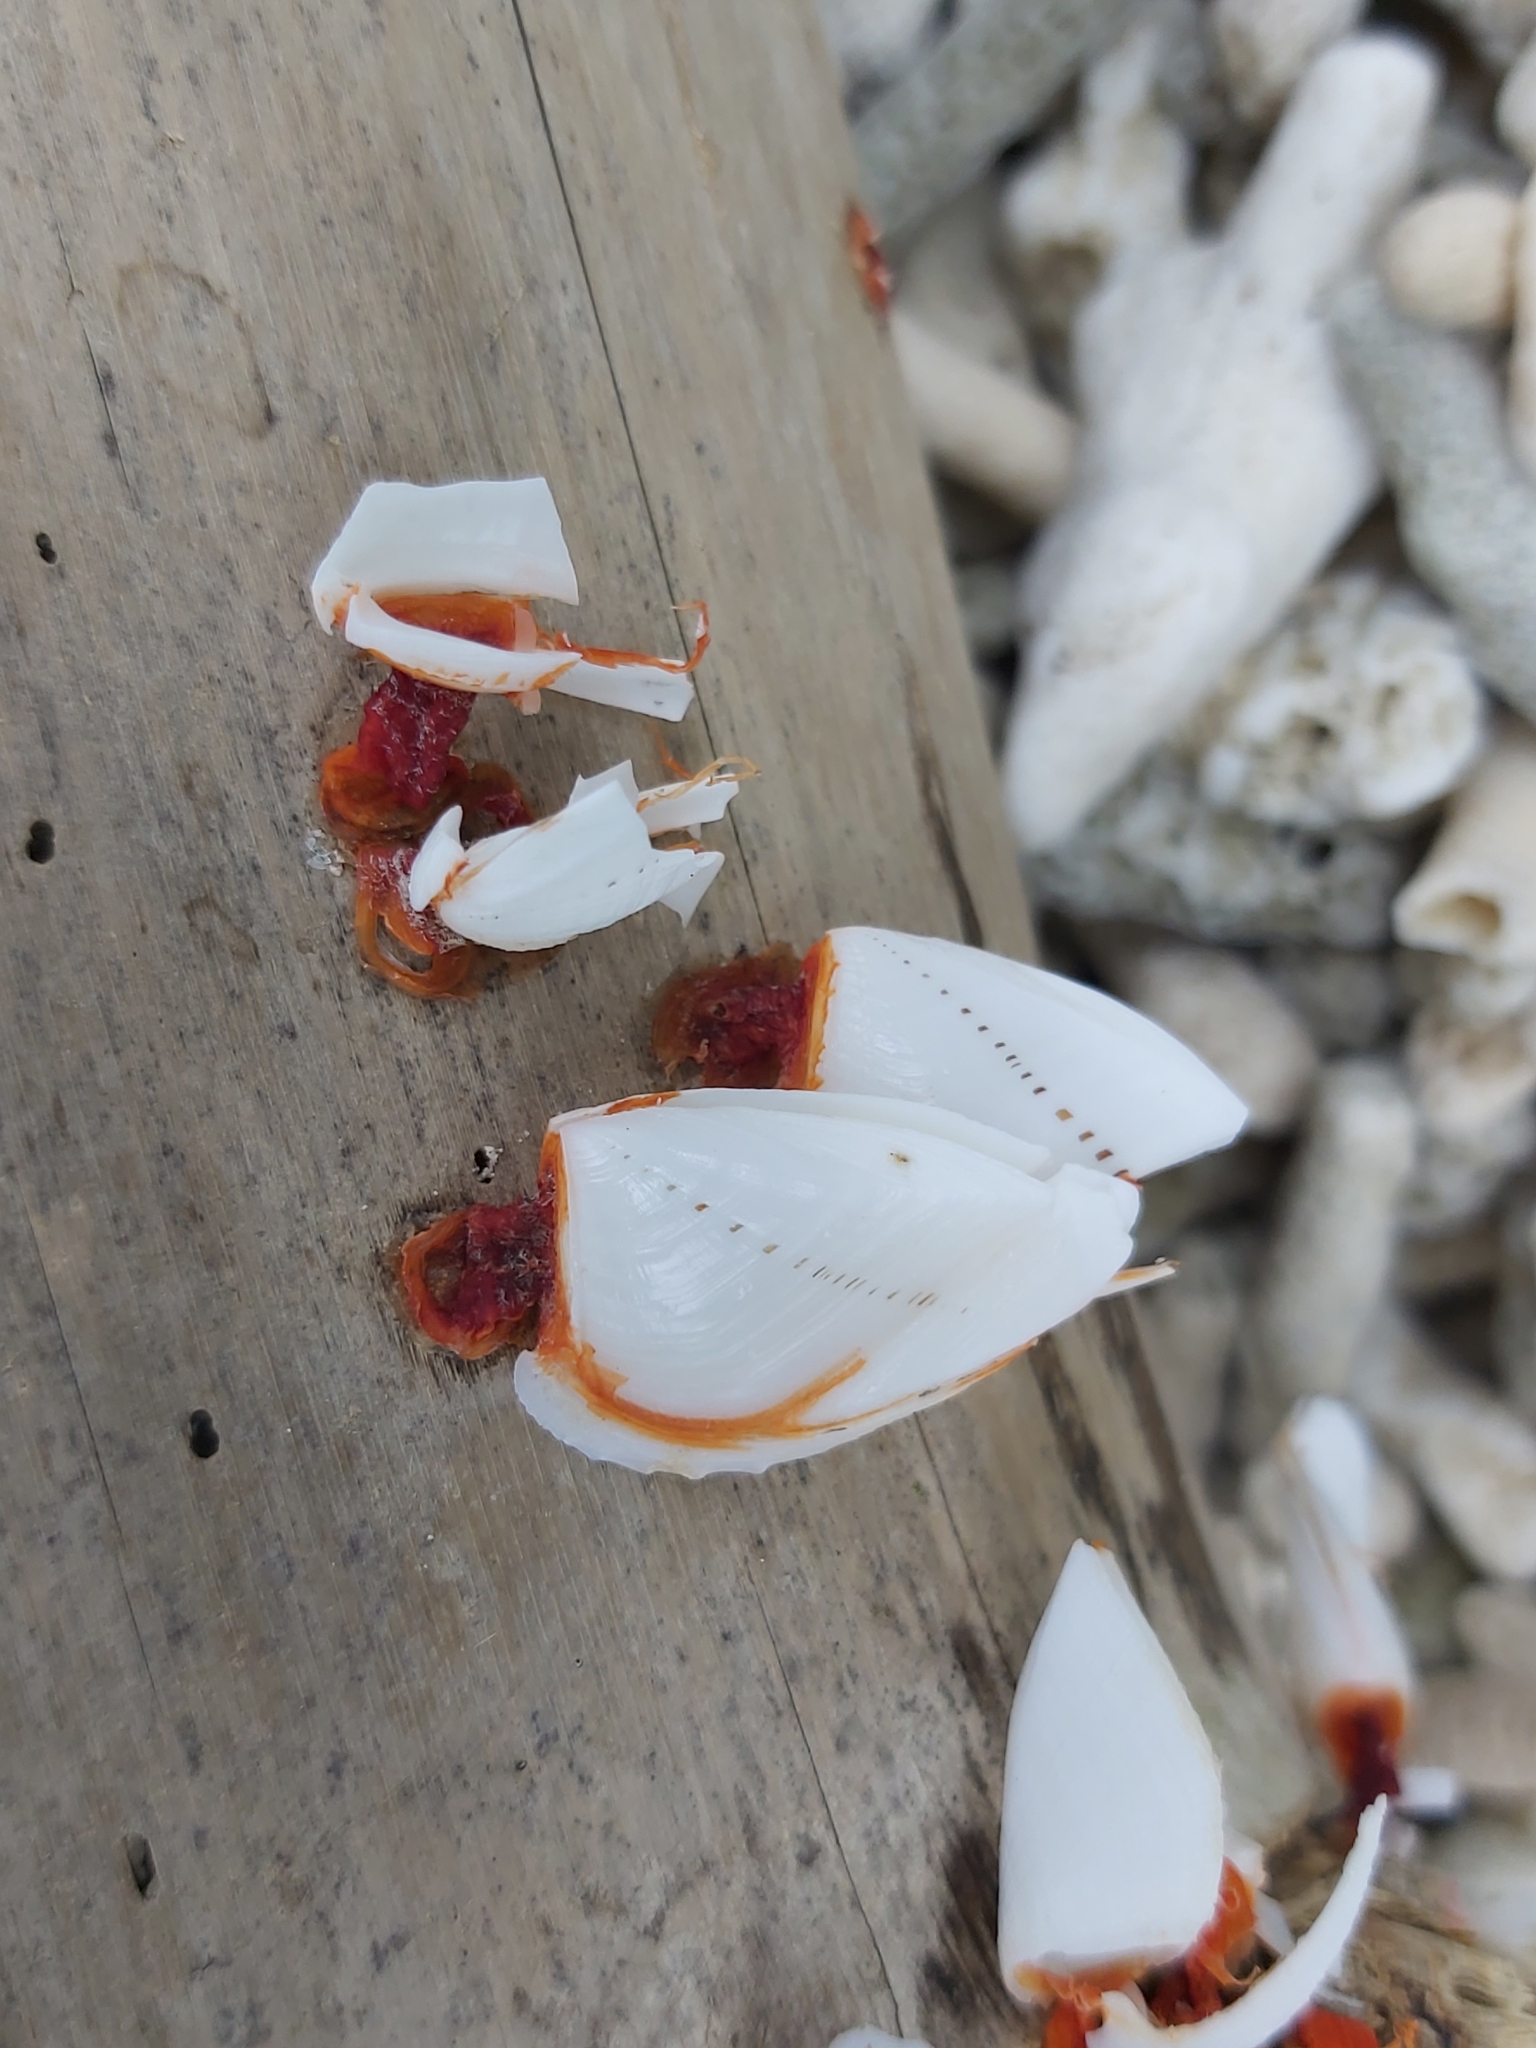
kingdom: Animalia
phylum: Arthropoda
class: Maxillopoda
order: Pedunculata
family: Lepadidae
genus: Lepas
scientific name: Lepas indica
